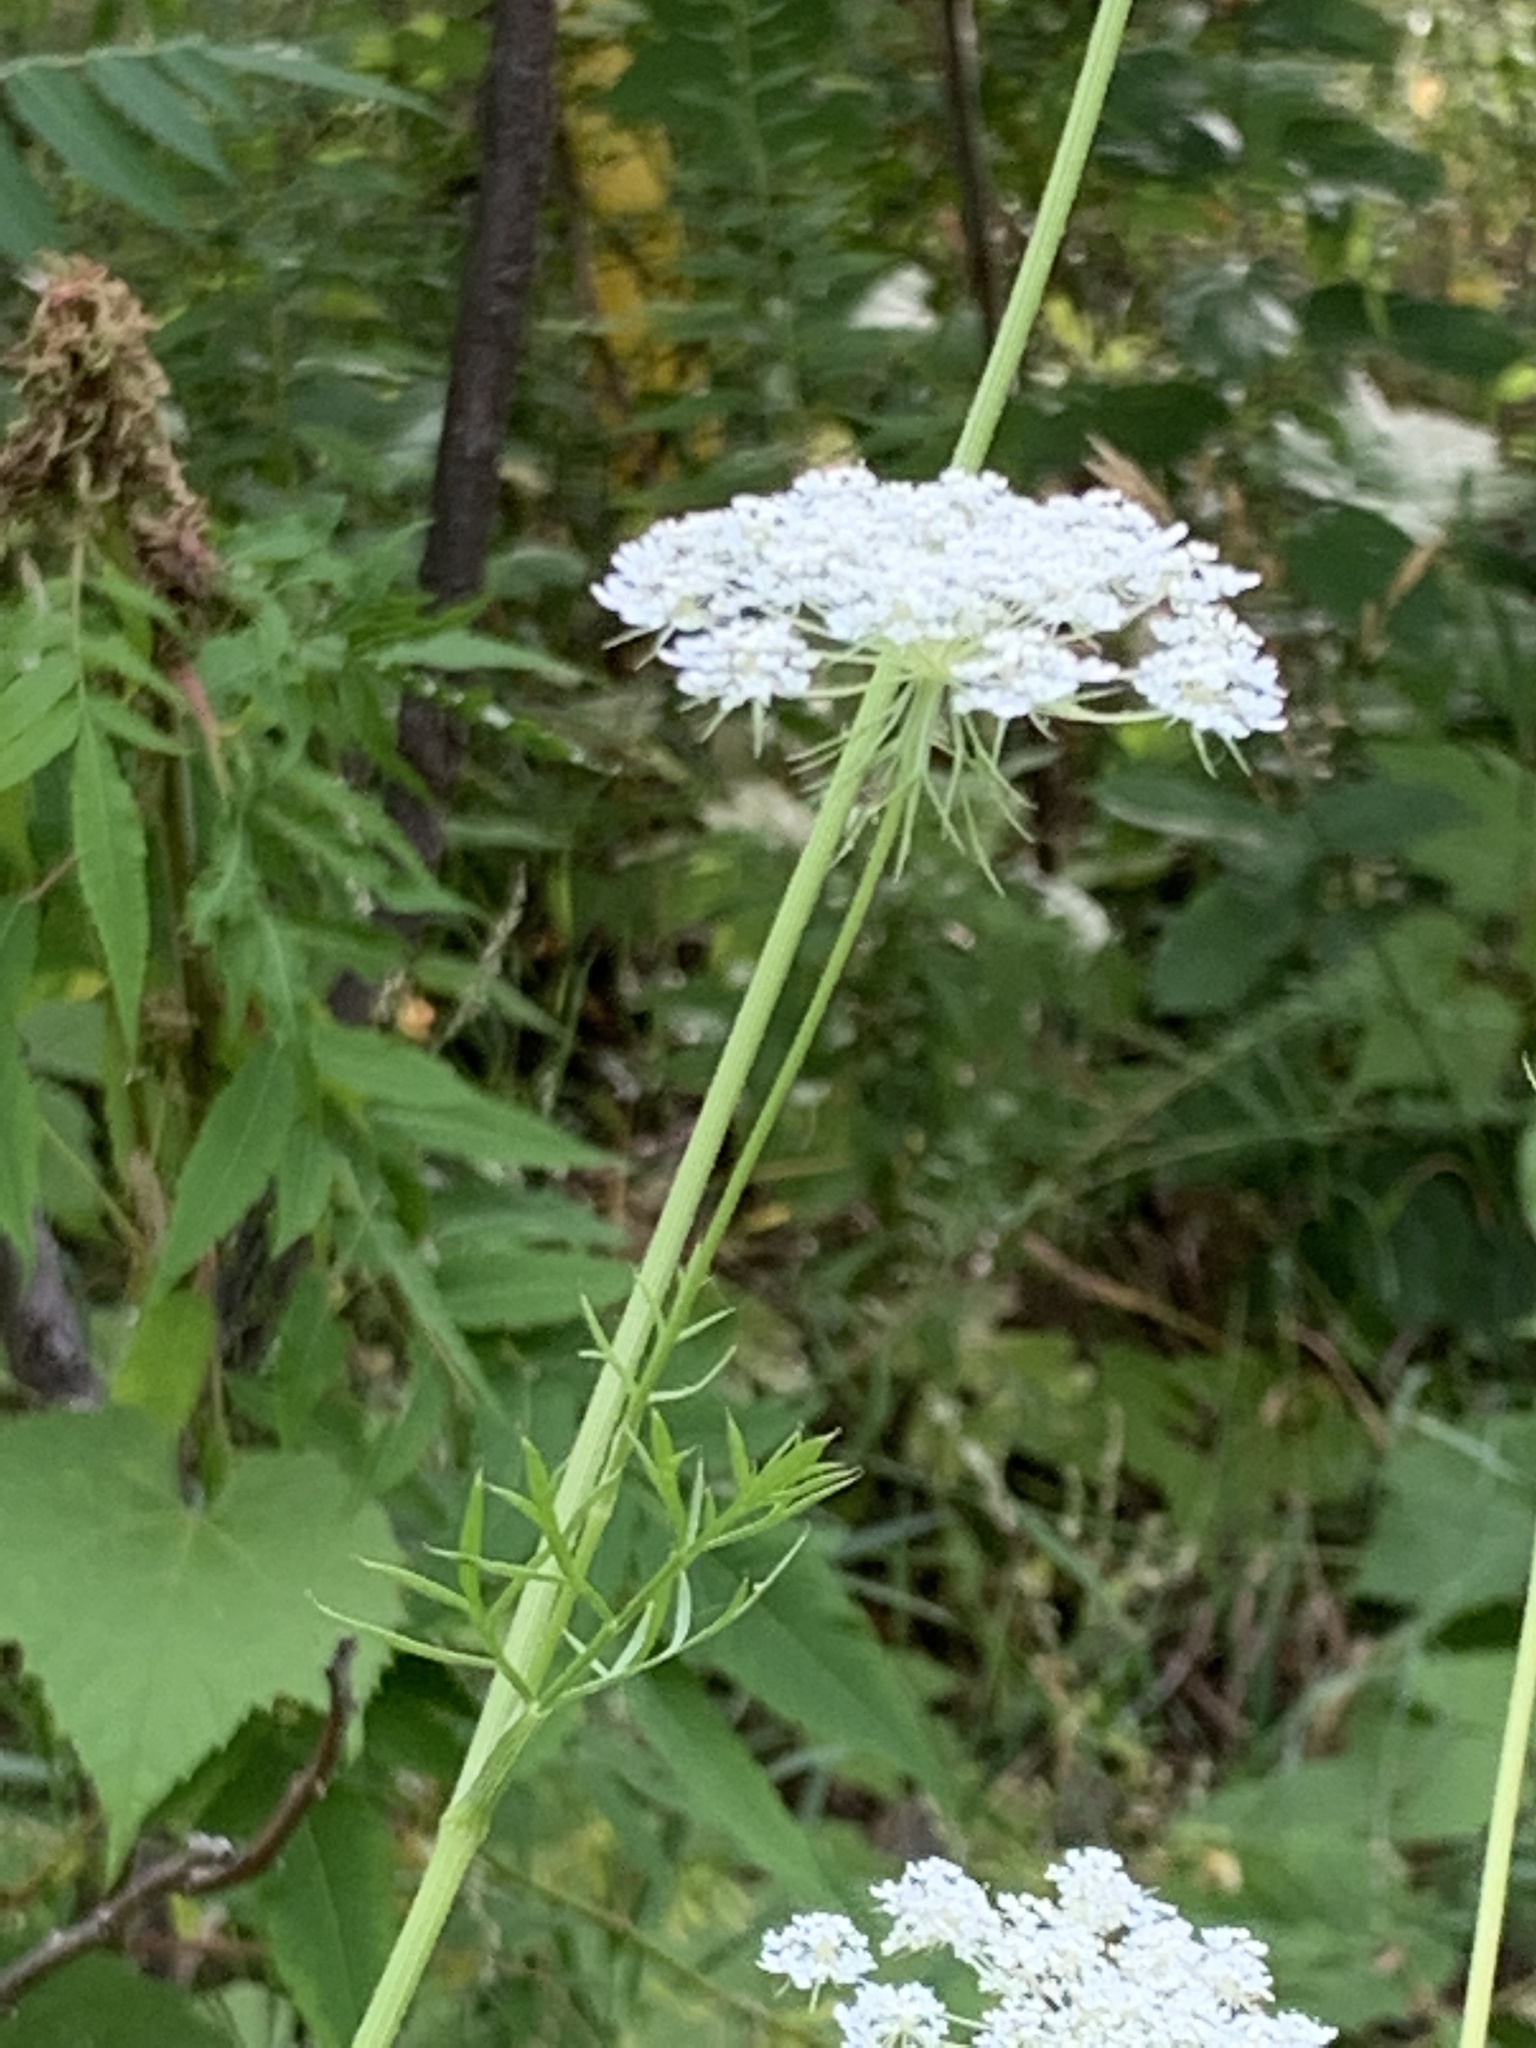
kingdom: Plantae
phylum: Tracheophyta
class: Magnoliopsida
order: Apiales
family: Apiaceae
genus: Daucus
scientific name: Daucus carota
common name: Wild carrot
